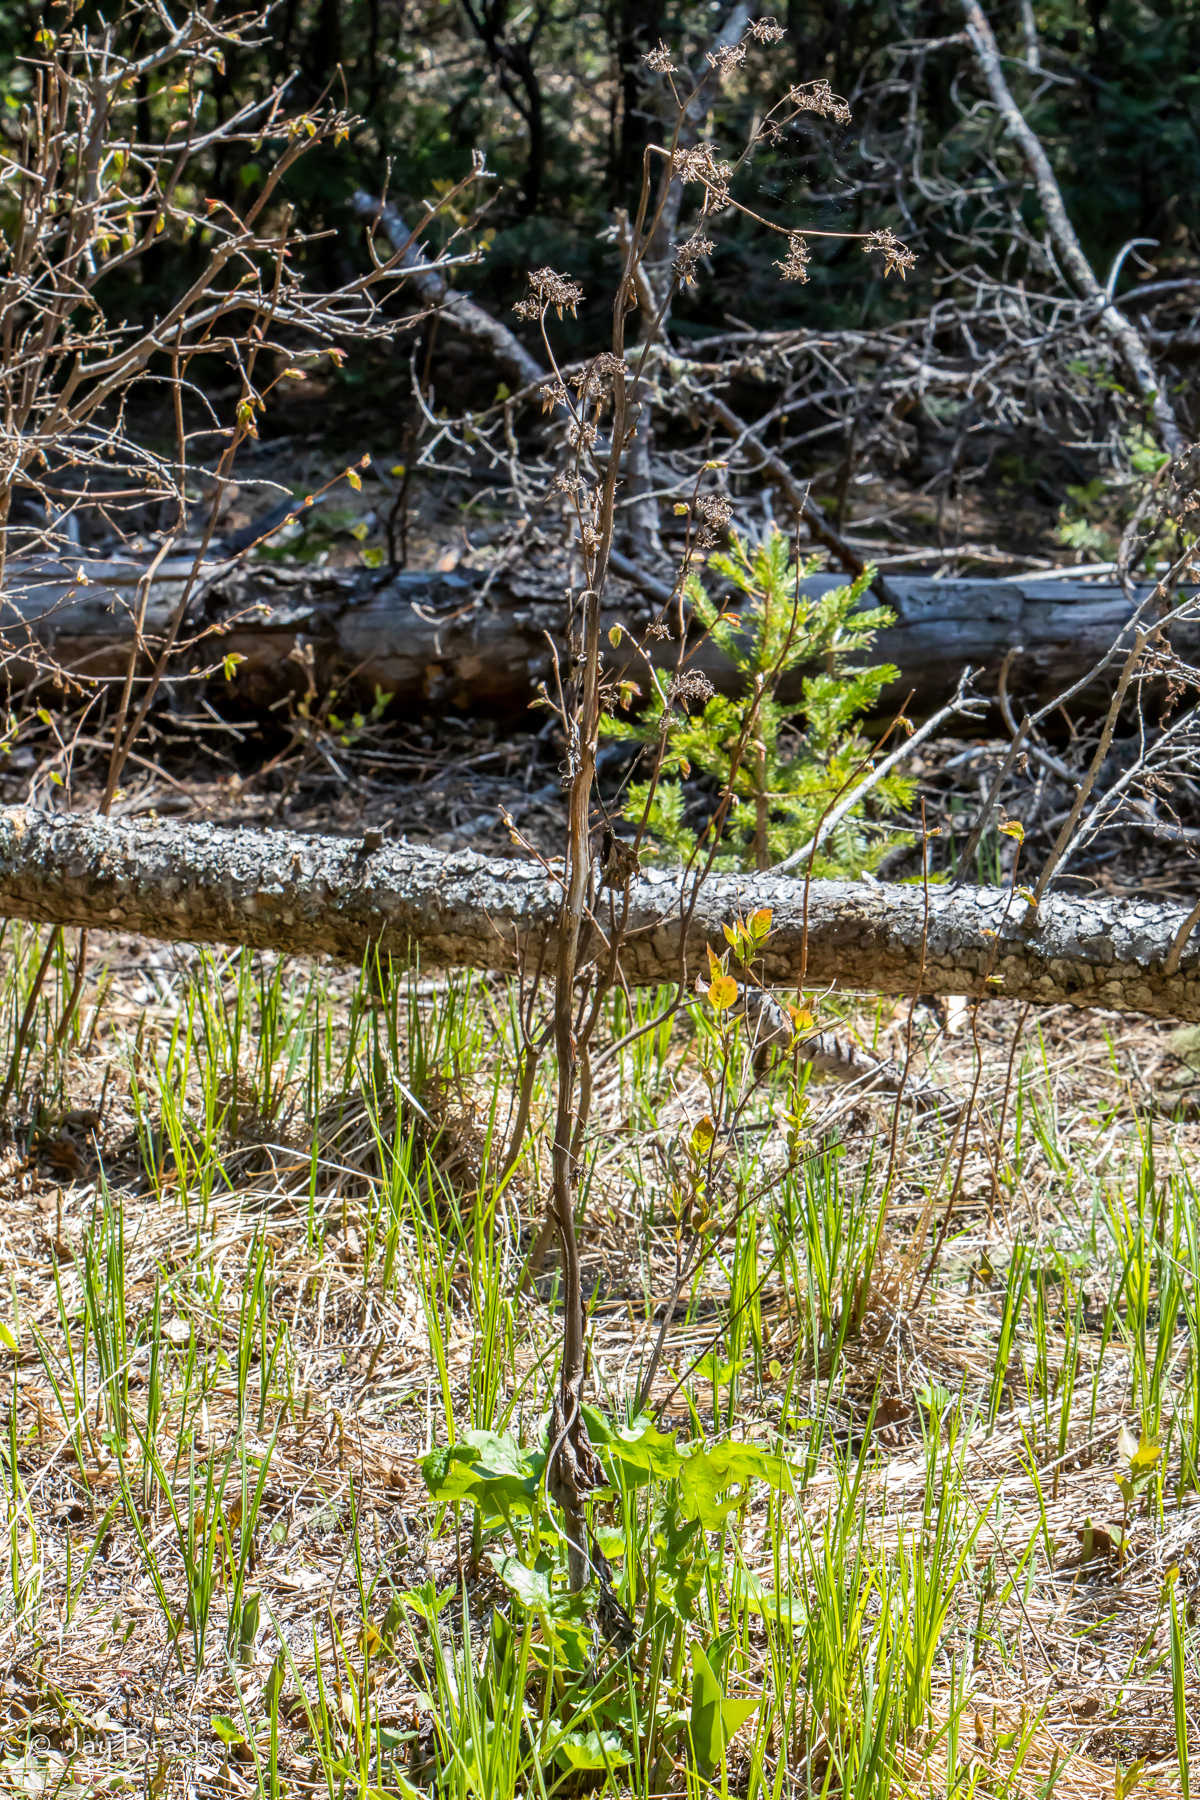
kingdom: Plantae
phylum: Tracheophyta
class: Magnoliopsida
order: Asterales
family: Asteraceae
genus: Nabalus
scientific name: Nabalus albus
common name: White rattlesnakeroot
